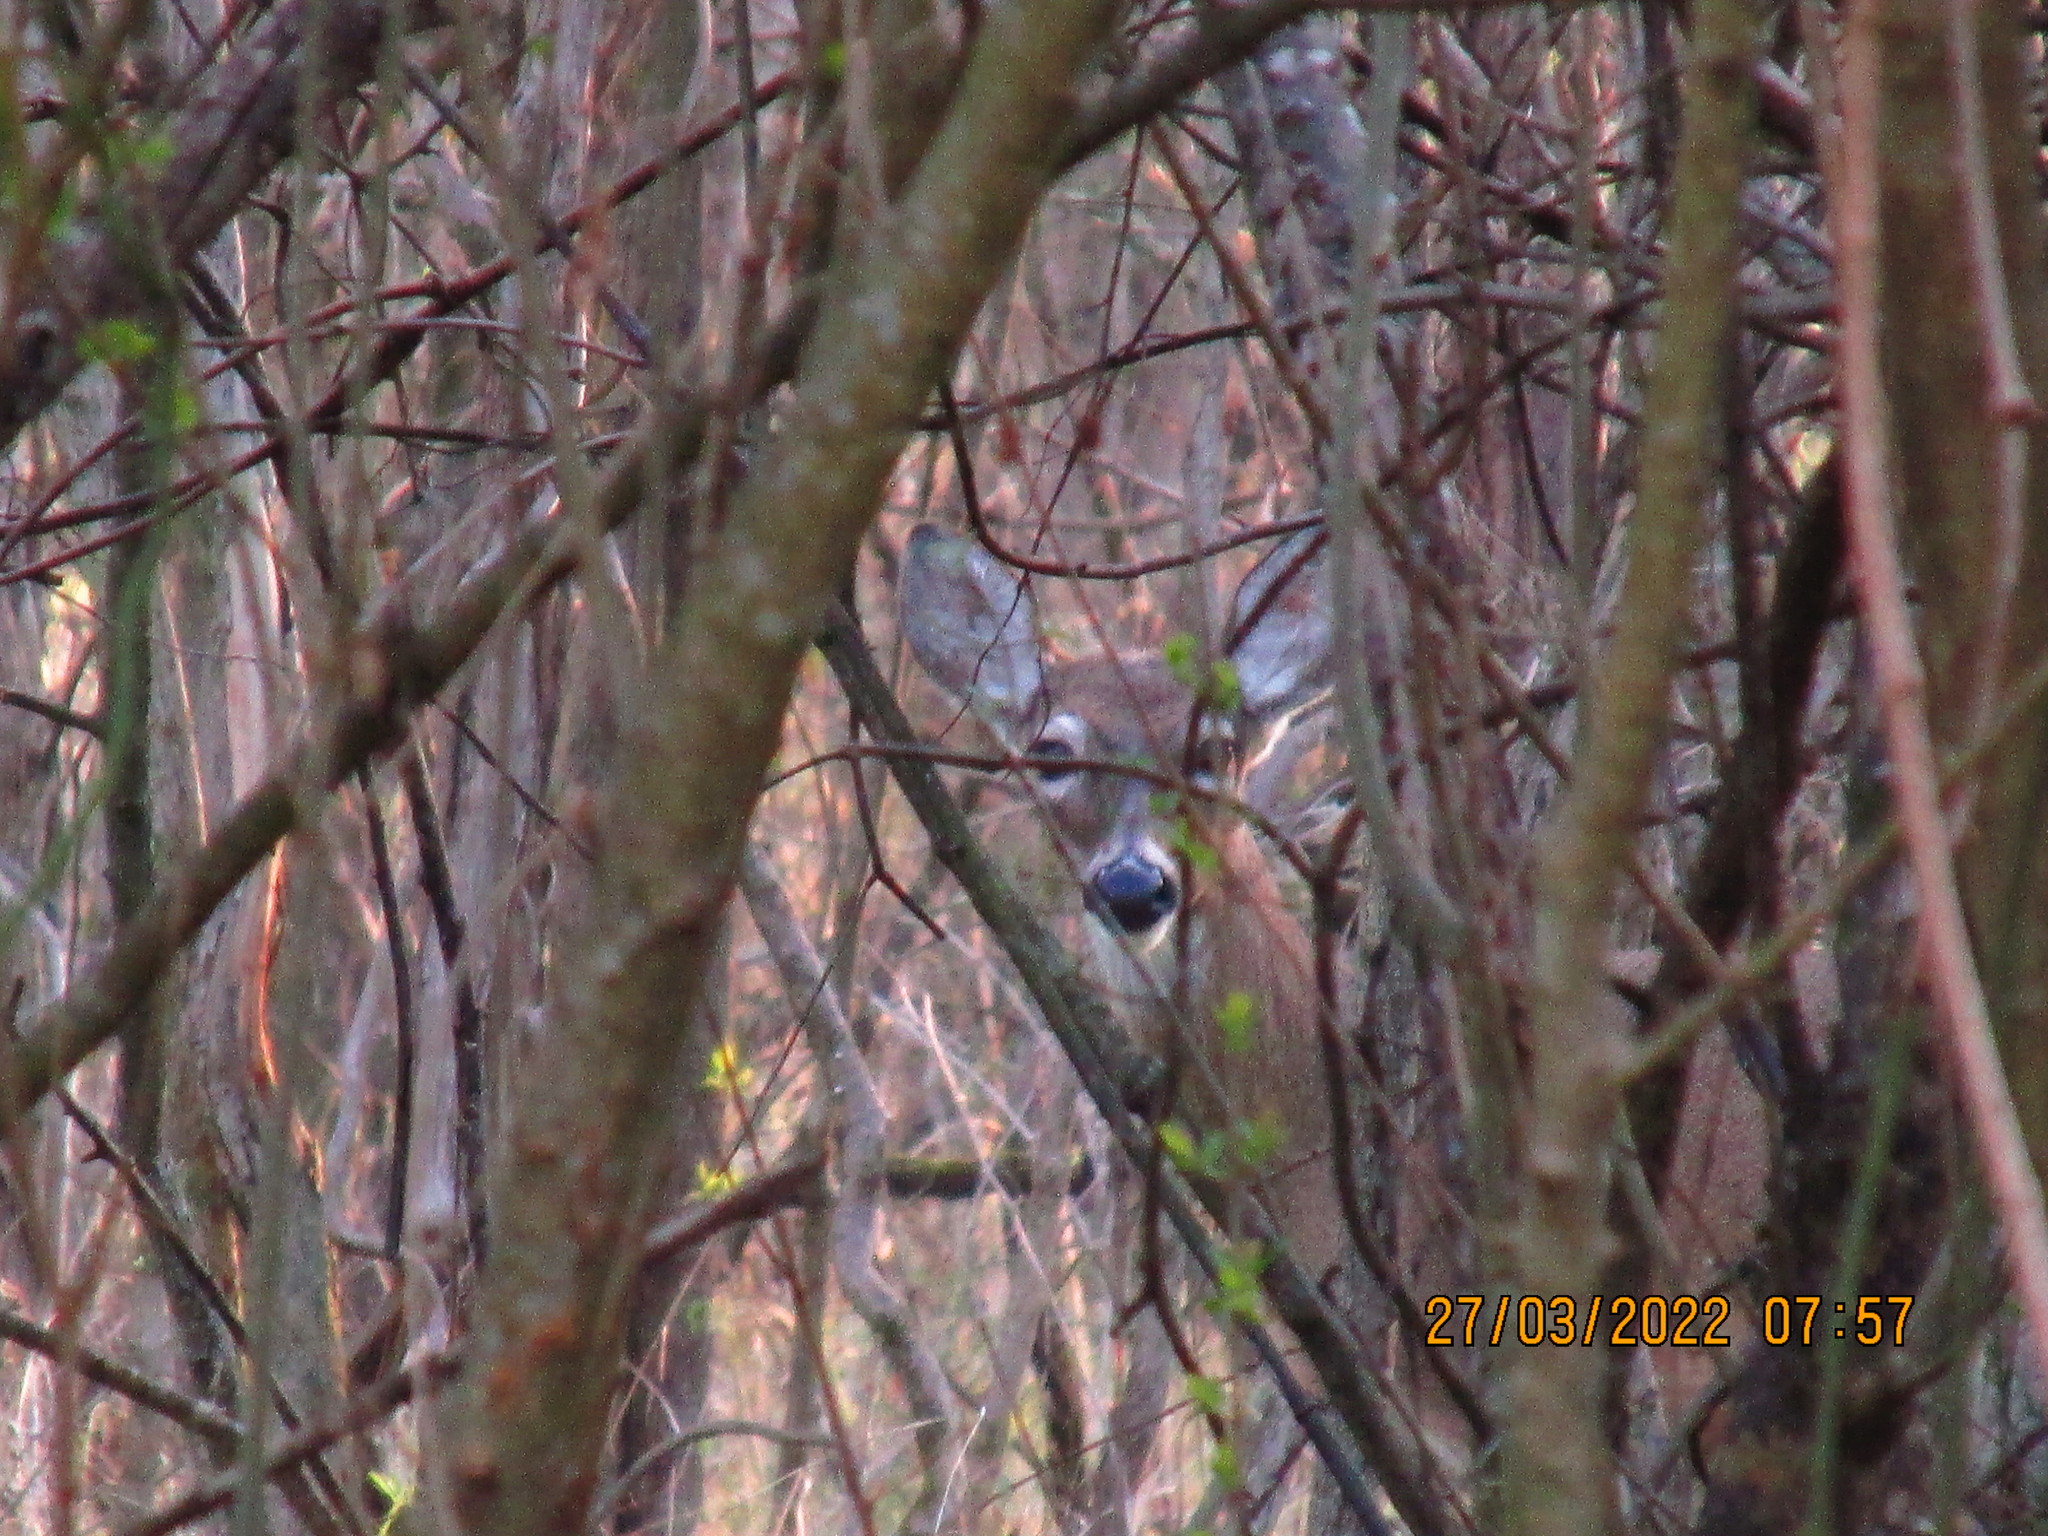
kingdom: Animalia
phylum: Chordata
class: Mammalia
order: Artiodactyla
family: Cervidae
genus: Odocoileus
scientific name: Odocoileus virginianus
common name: White-tailed deer
